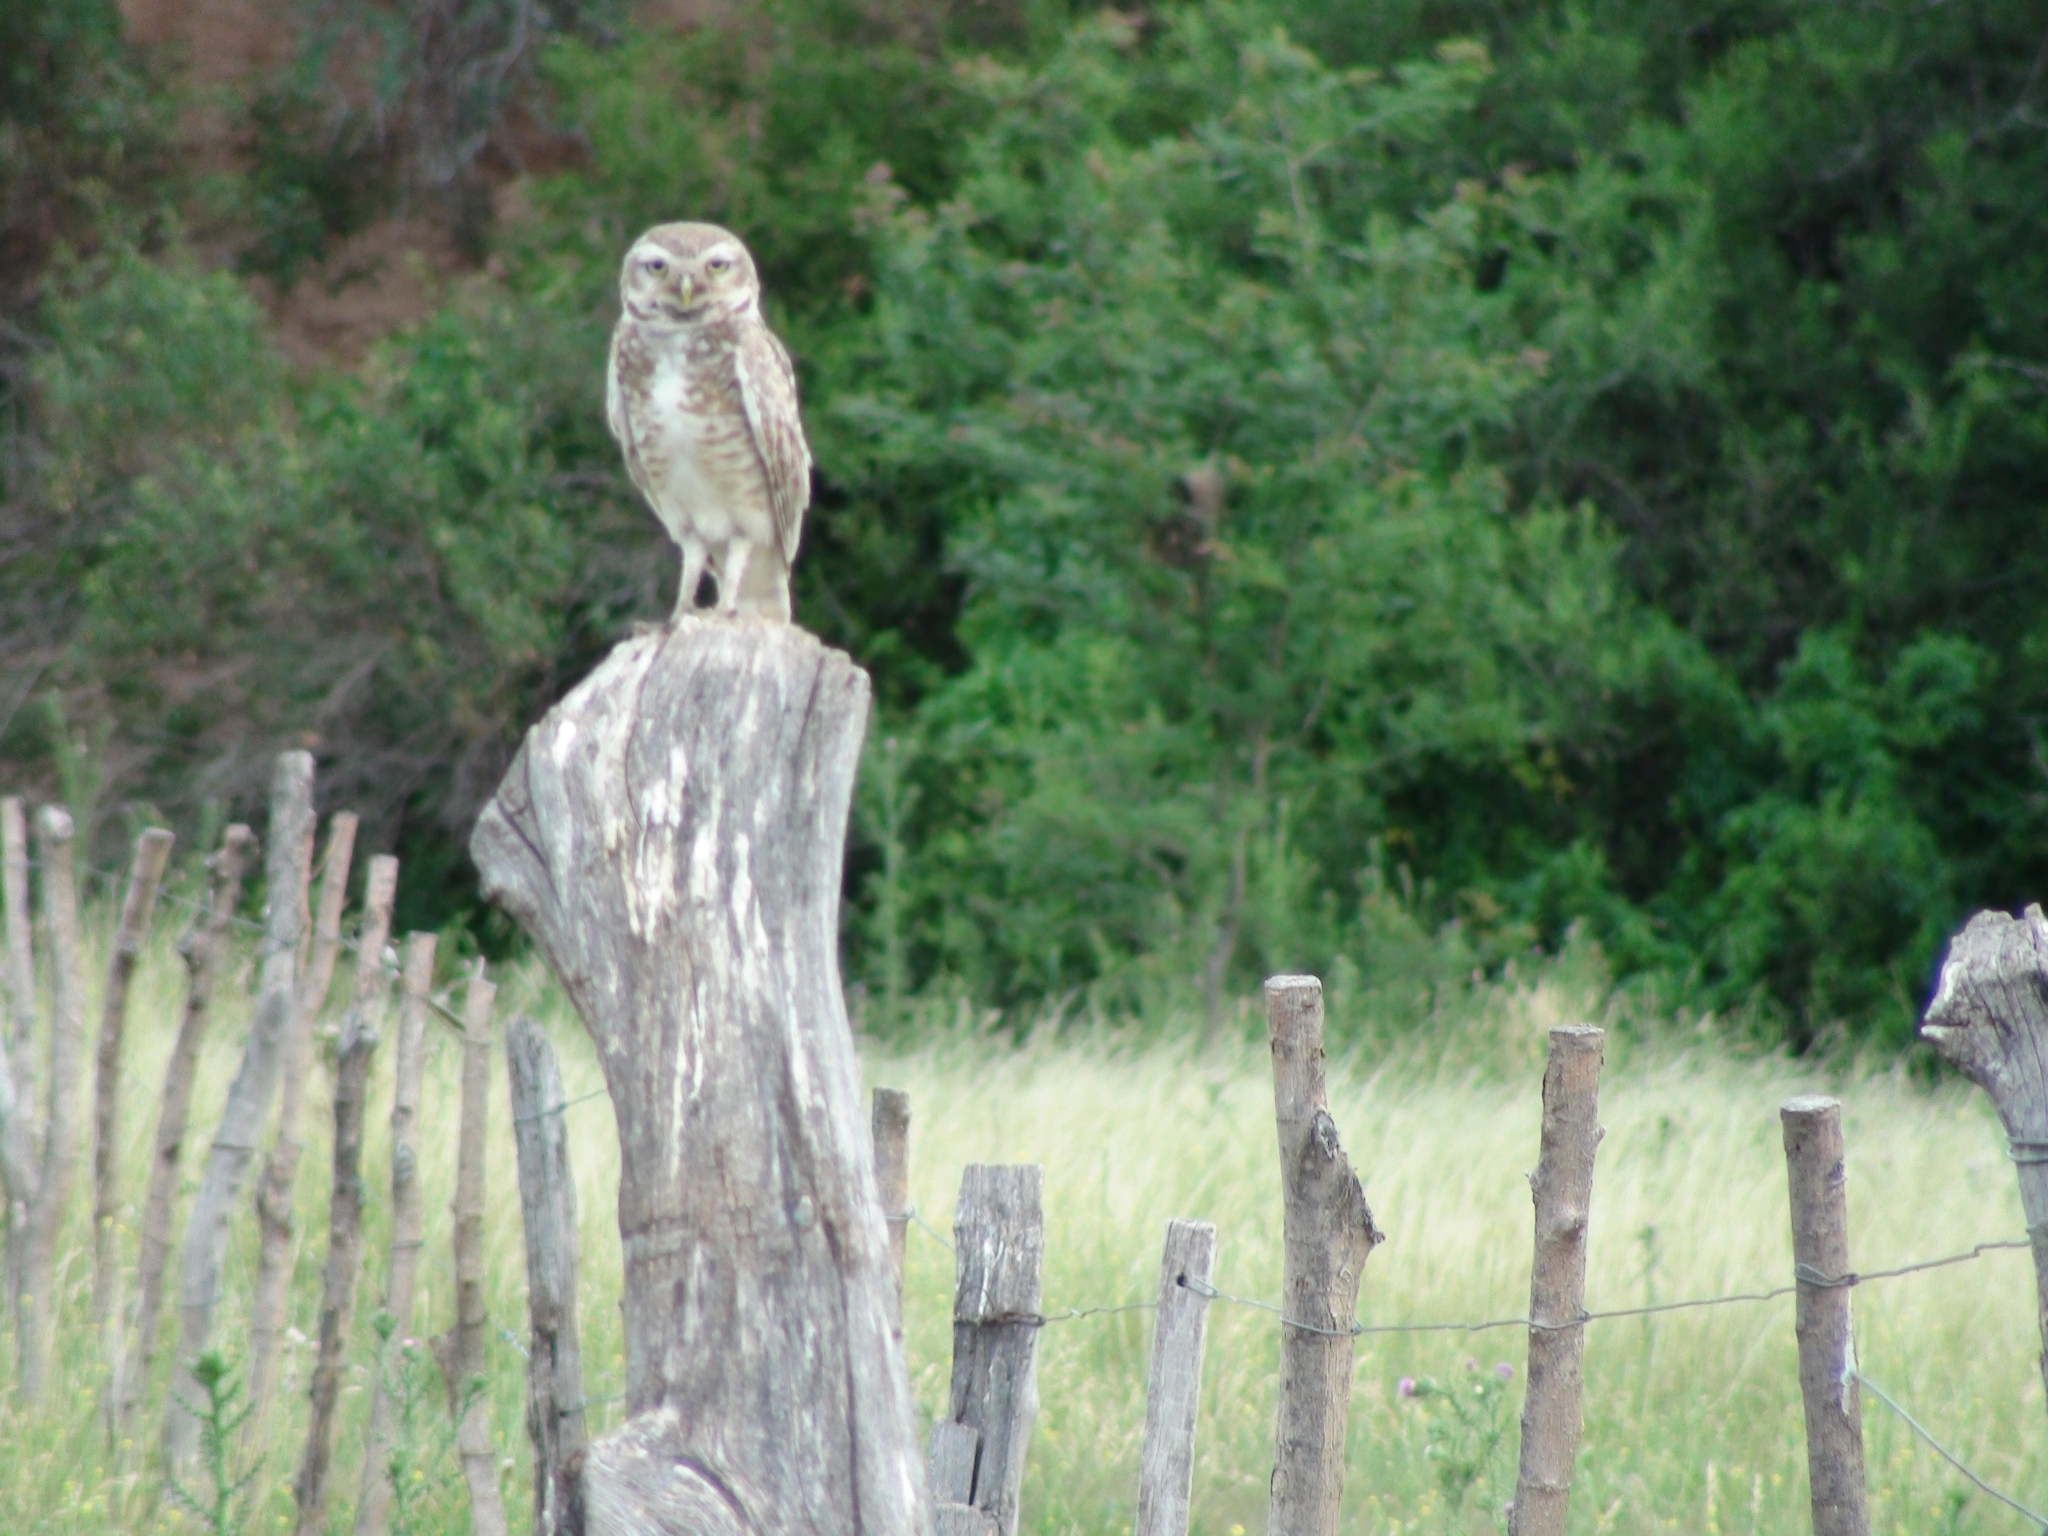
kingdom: Animalia
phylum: Chordata
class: Aves
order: Strigiformes
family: Strigidae
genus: Athene
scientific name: Athene cunicularia
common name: Burrowing owl
